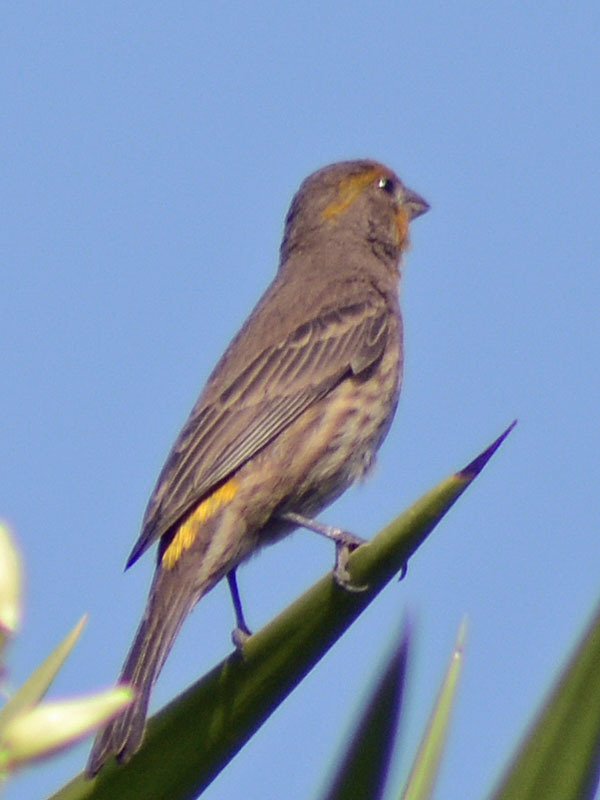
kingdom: Animalia
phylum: Chordata
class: Aves
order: Passeriformes
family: Fringillidae
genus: Haemorhous
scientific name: Haemorhous mexicanus
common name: House finch
